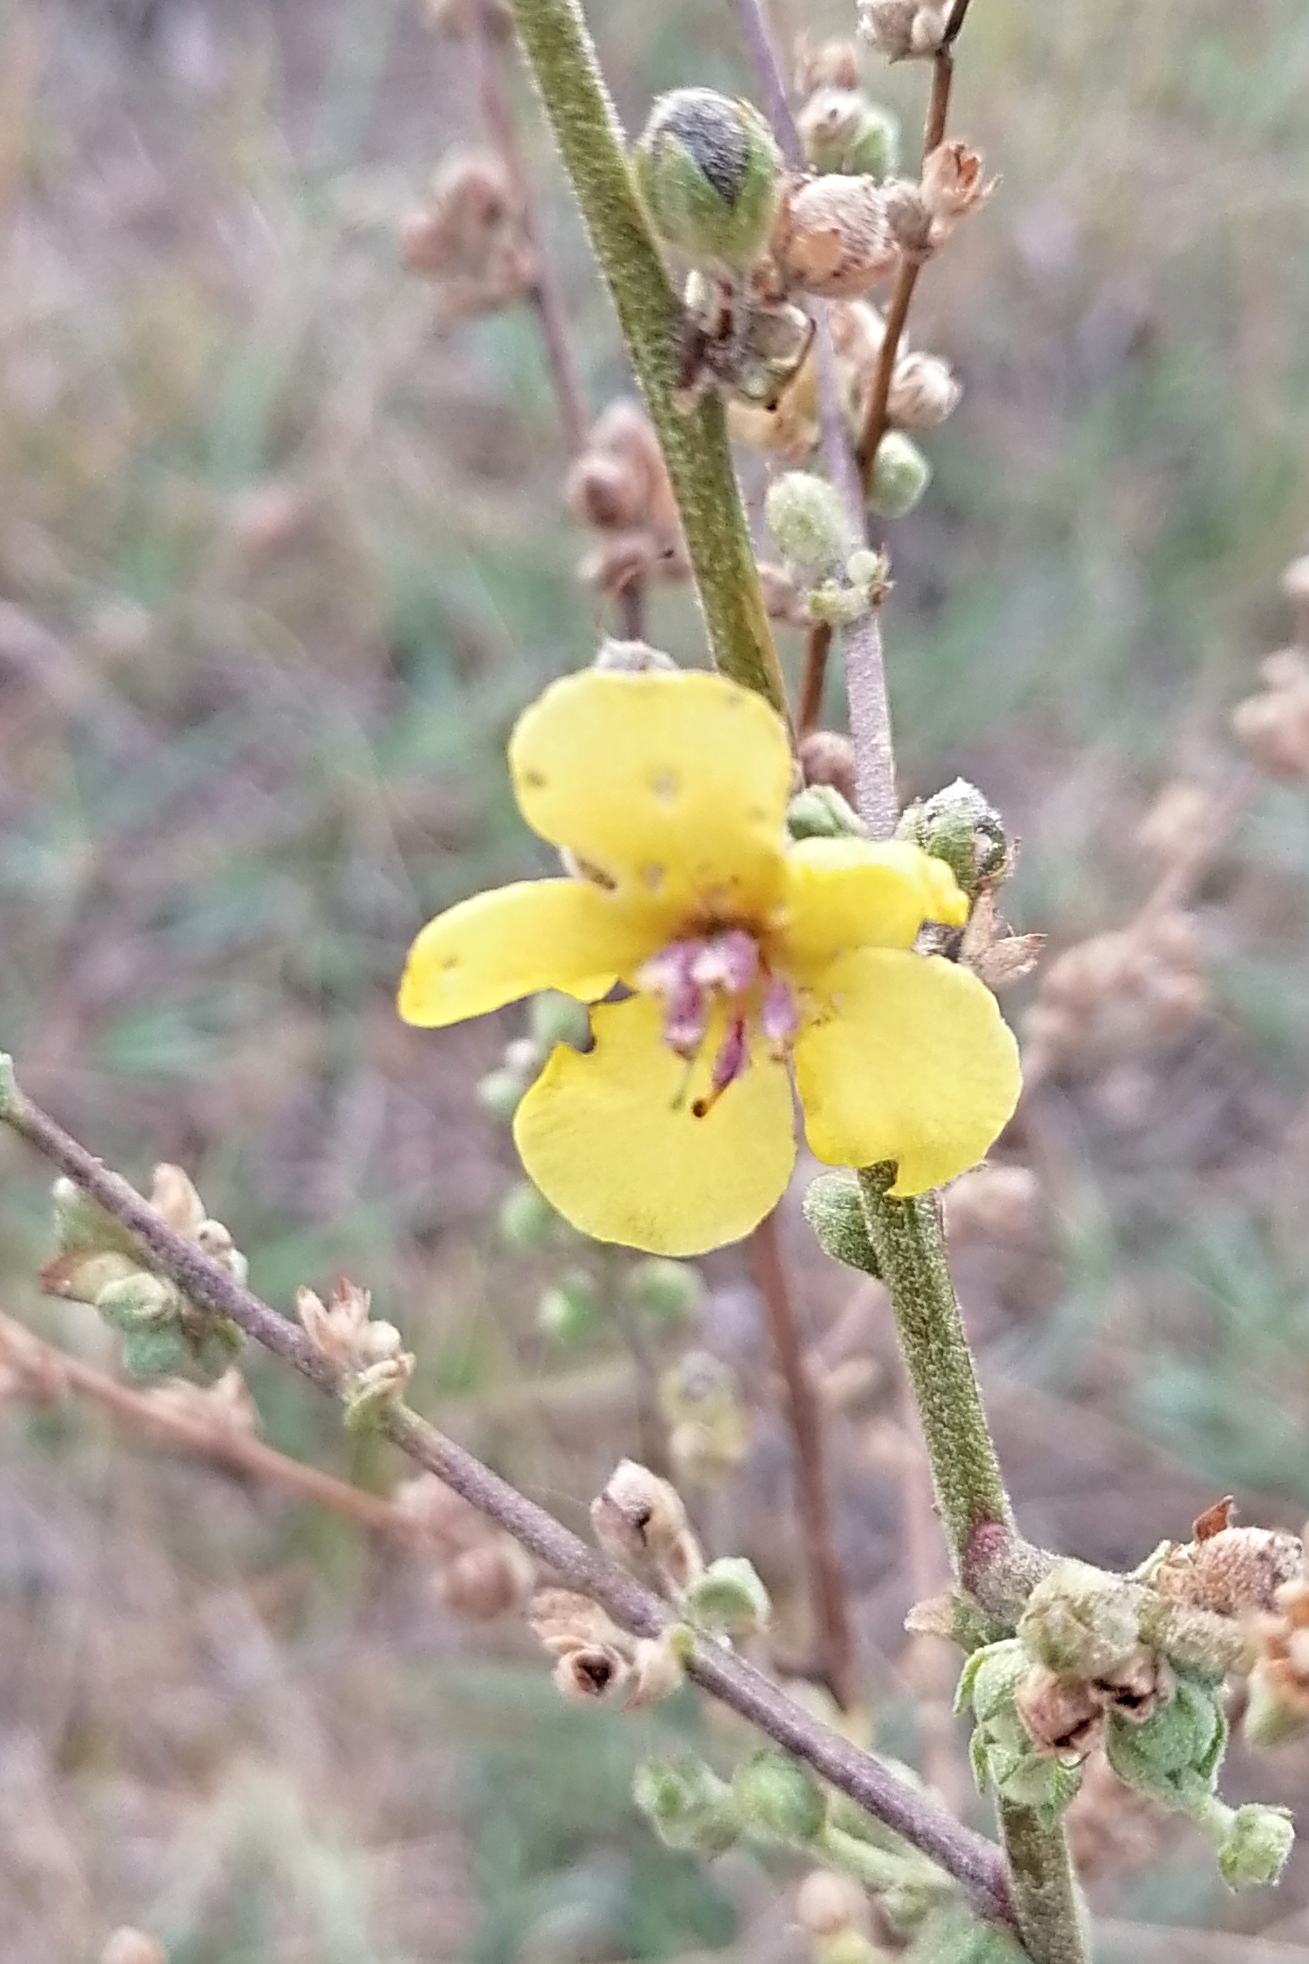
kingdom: Plantae
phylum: Tracheophyta
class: Magnoliopsida
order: Lamiales
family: Scrophulariaceae
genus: Verbascum
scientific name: Verbascum sinuatum
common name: Wavyleaf mullein
